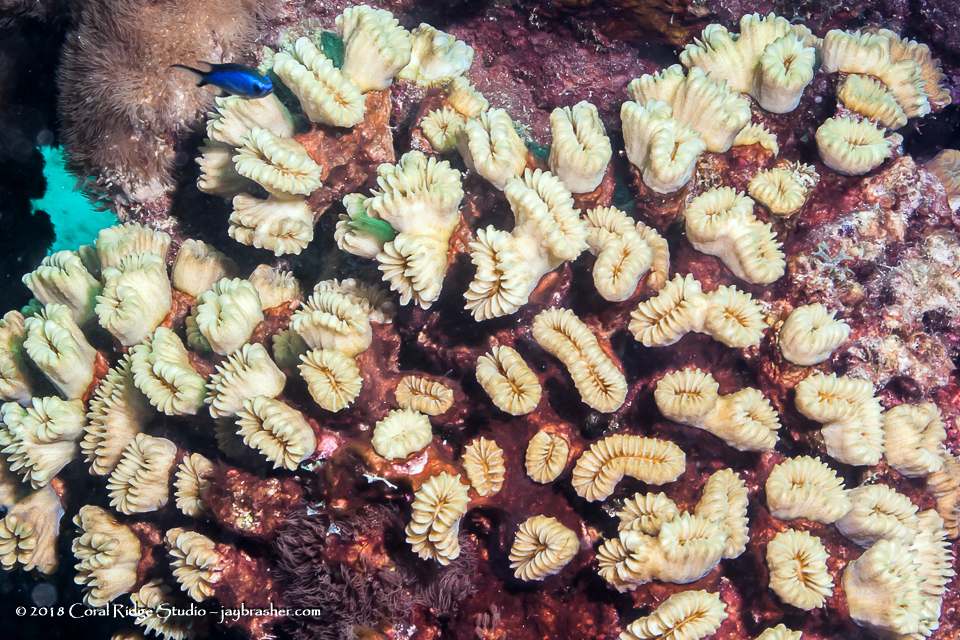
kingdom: Animalia
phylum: Cnidaria
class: Anthozoa
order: Scleractinia
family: Meandrinidae
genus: Eusmilia
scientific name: Eusmilia fastigiata
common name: Smooth flower coral
